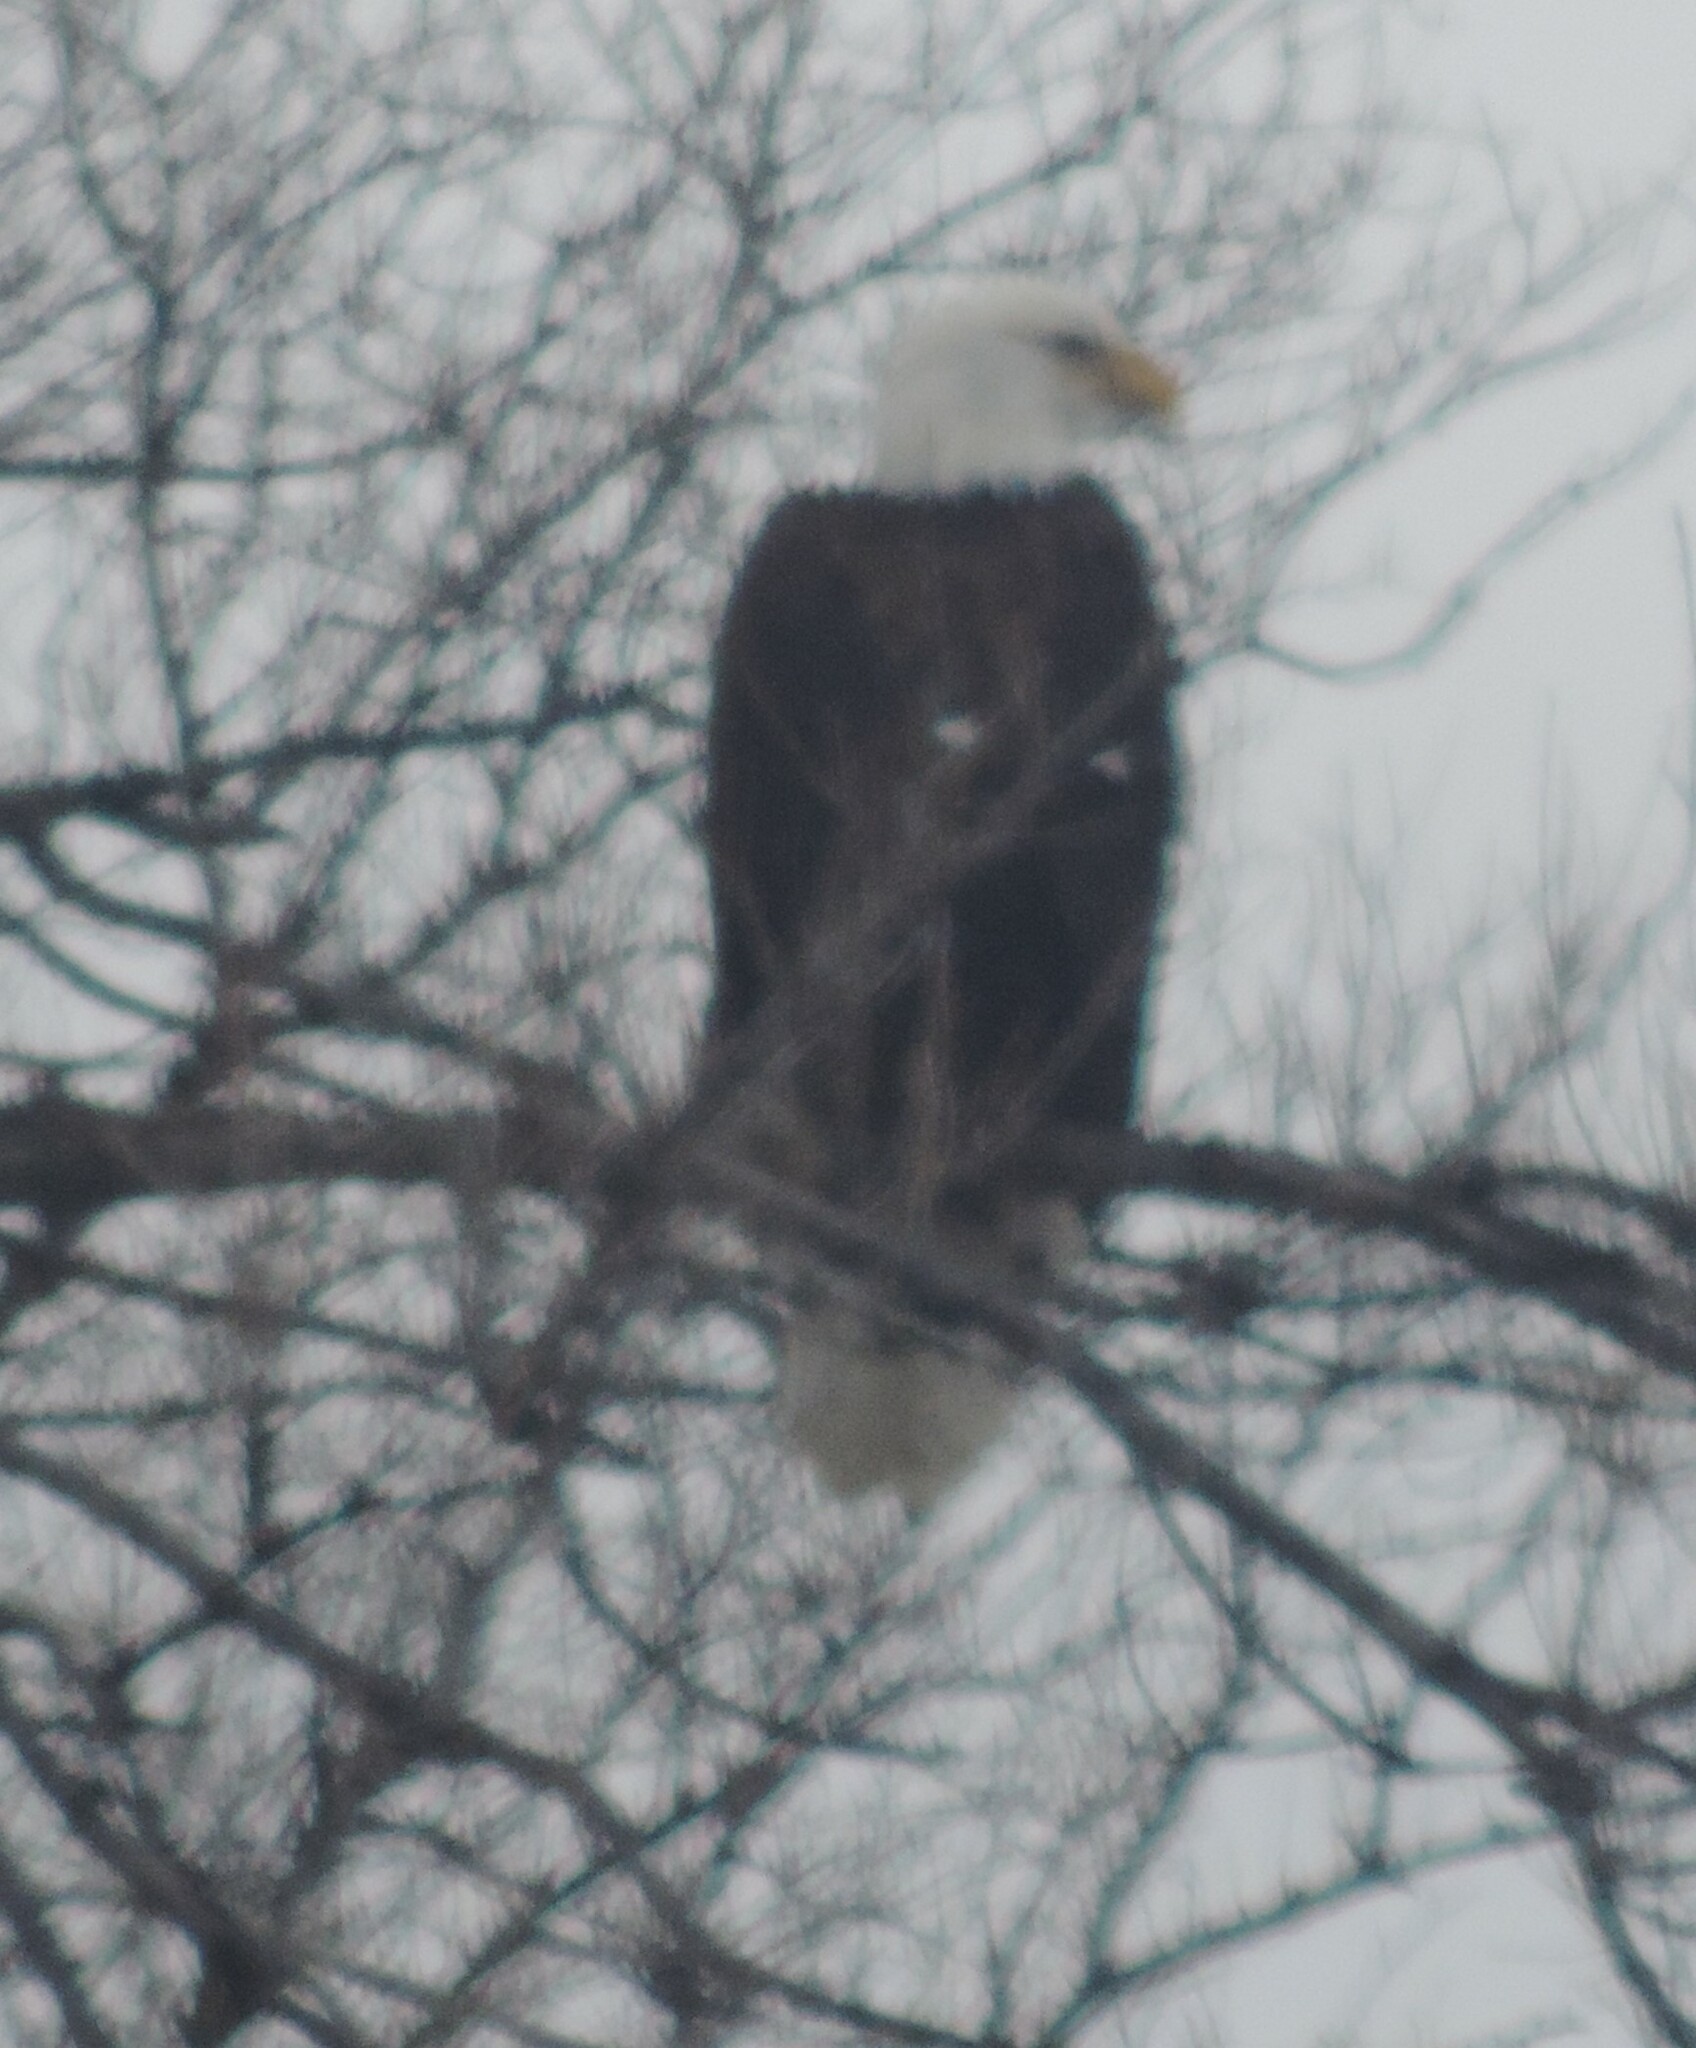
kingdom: Animalia
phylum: Chordata
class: Aves
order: Accipitriformes
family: Accipitridae
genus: Haliaeetus
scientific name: Haliaeetus leucocephalus
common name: Bald eagle
